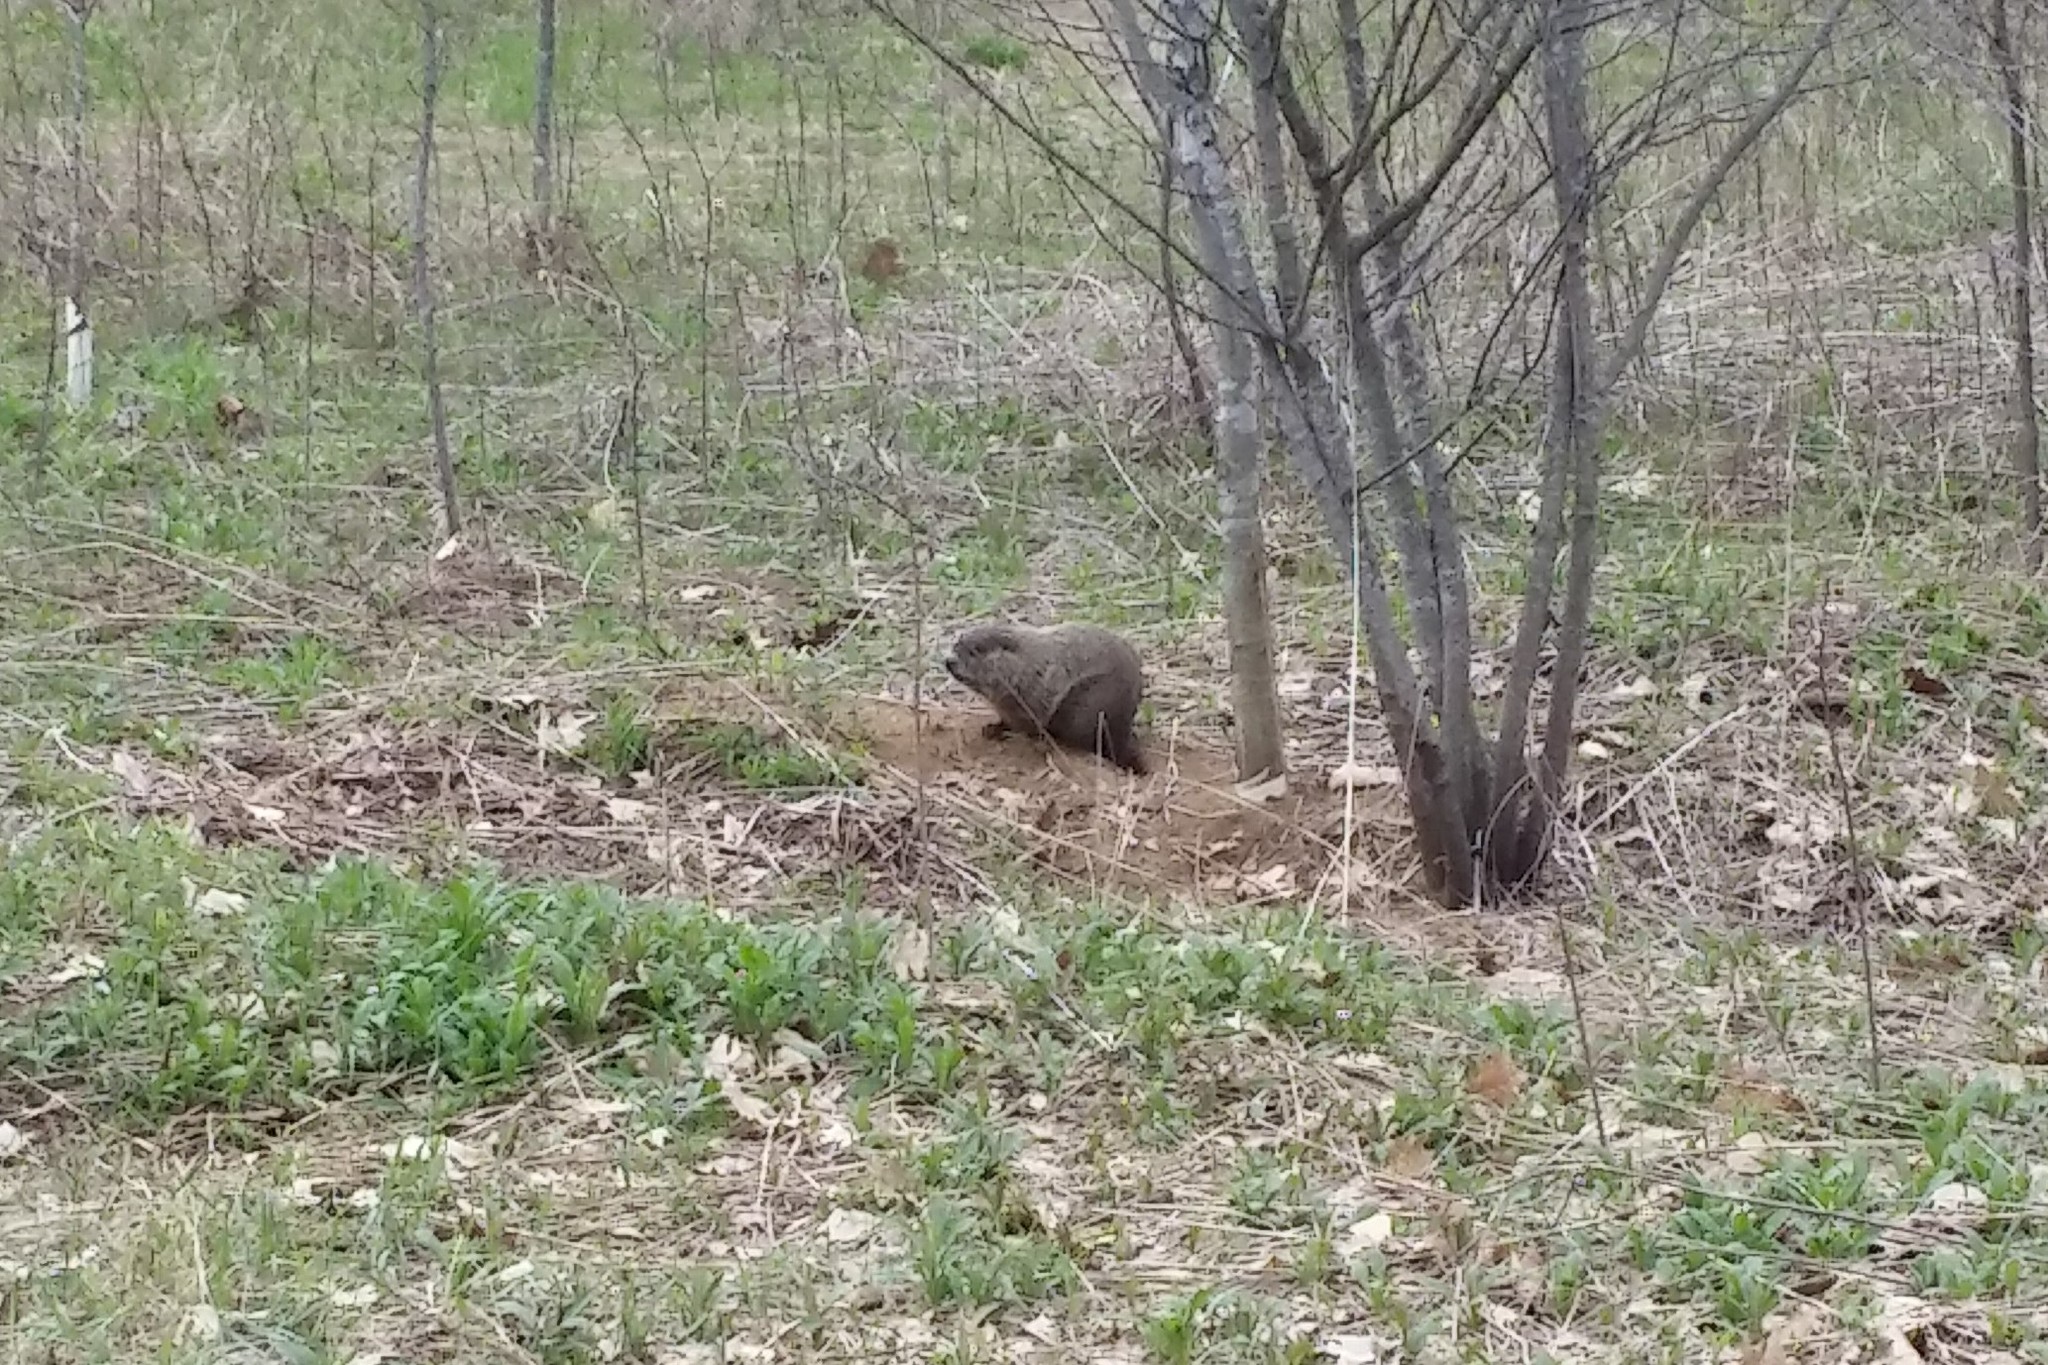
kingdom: Animalia
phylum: Chordata
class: Mammalia
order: Rodentia
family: Sciuridae
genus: Marmota
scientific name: Marmota monax
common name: Groundhog
